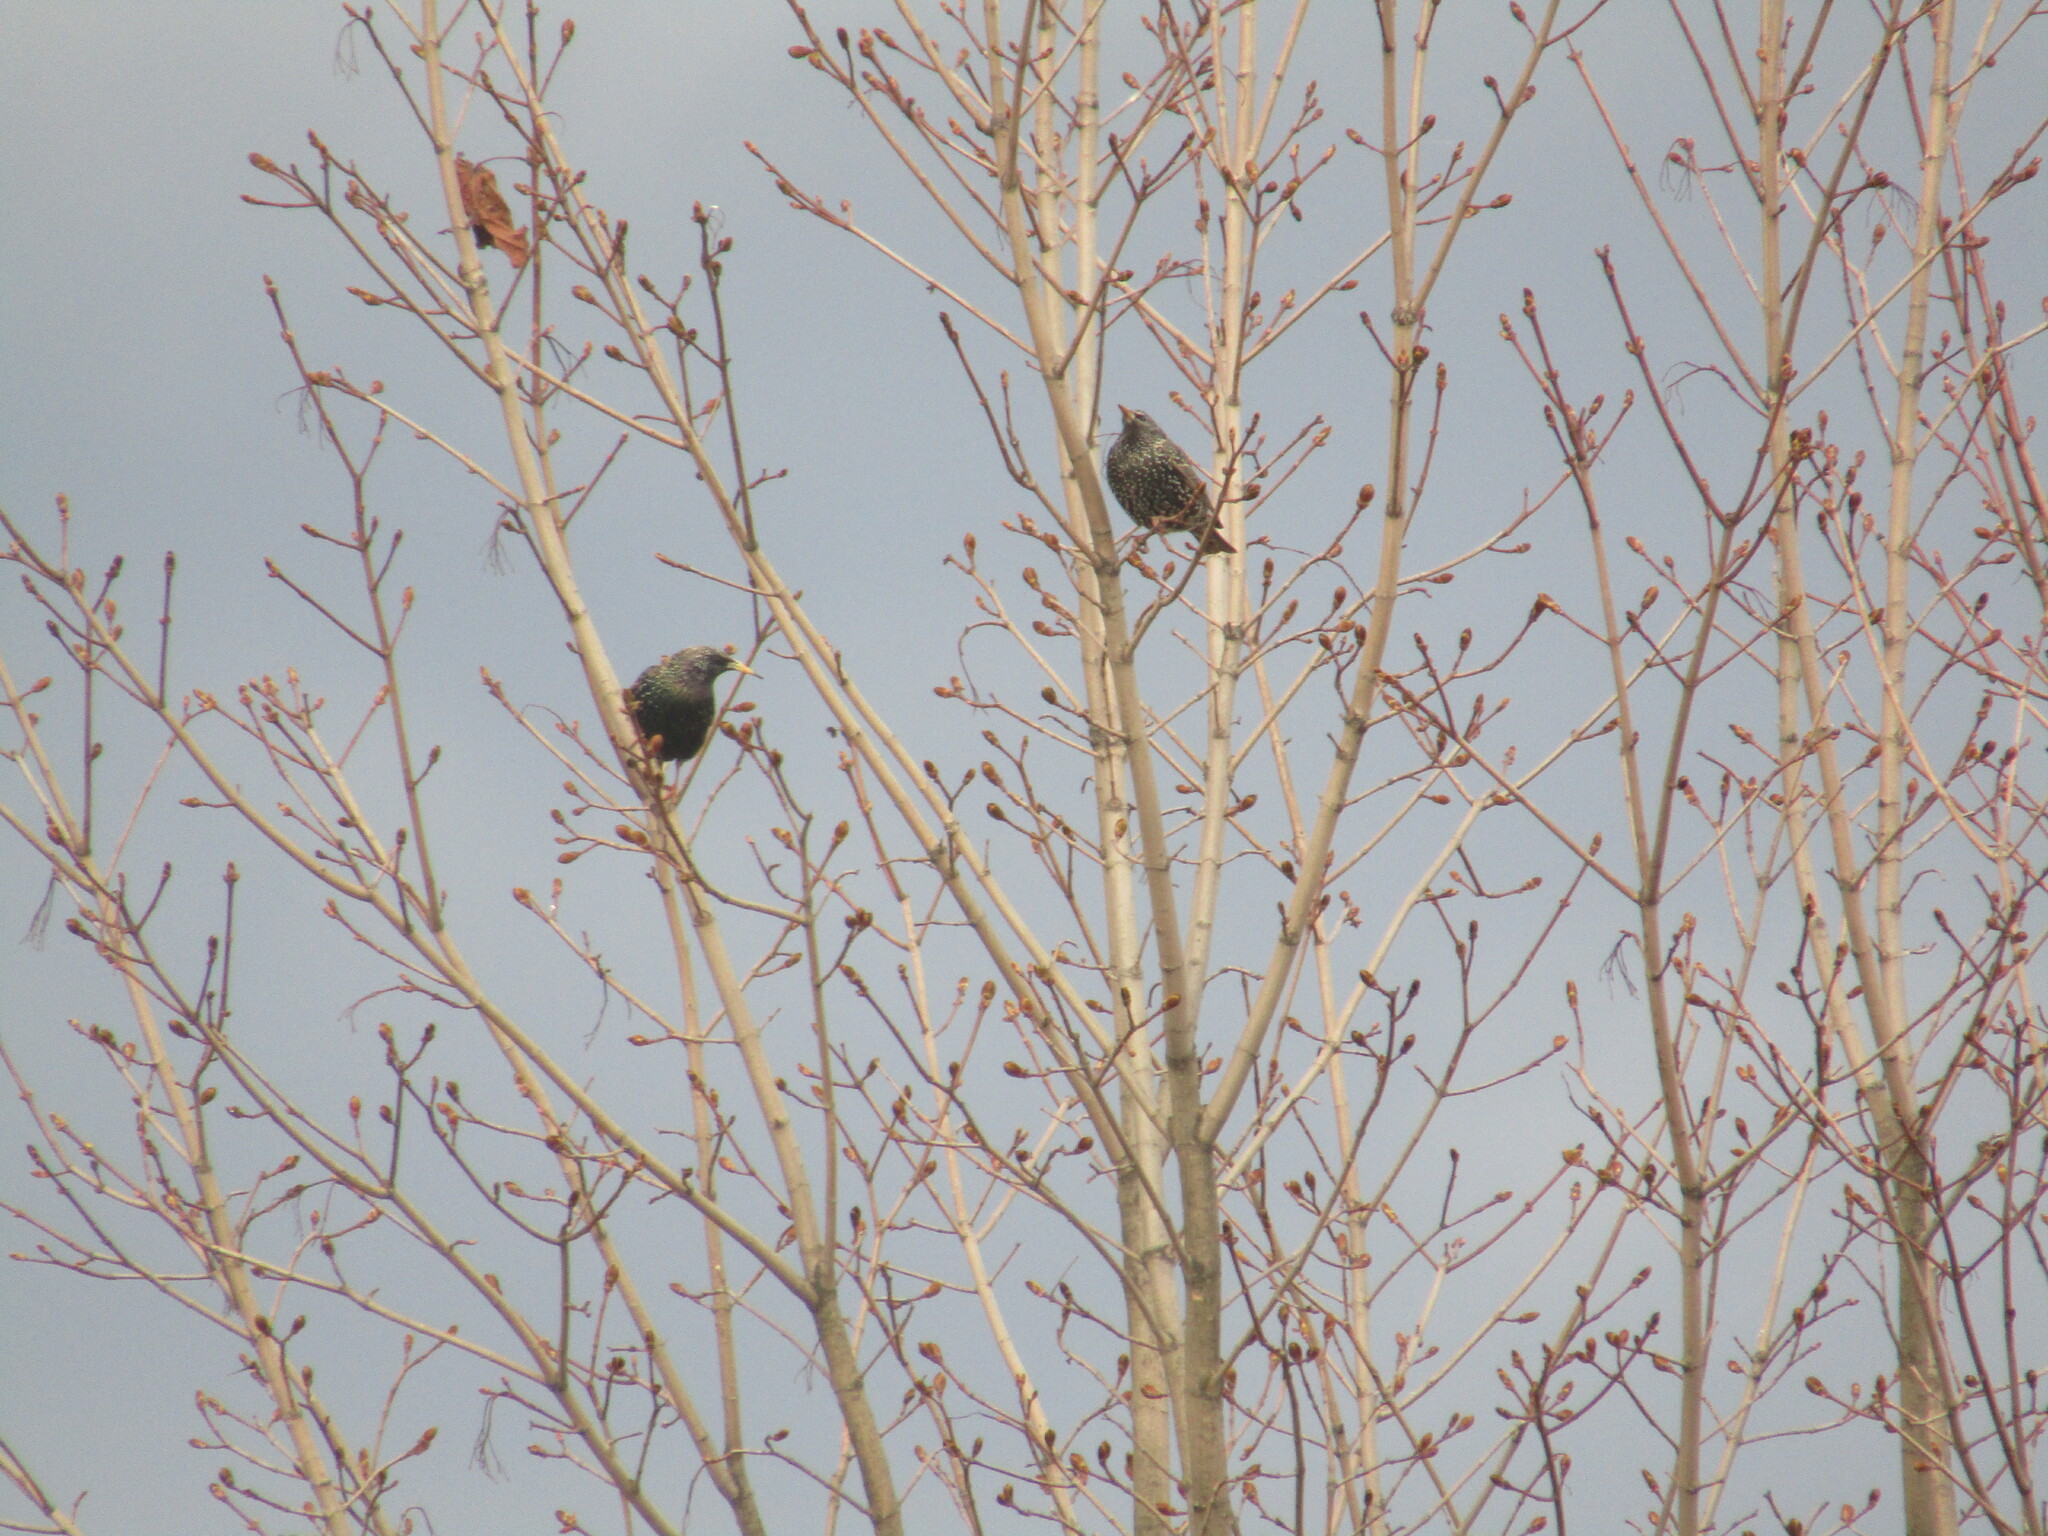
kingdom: Animalia
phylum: Chordata
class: Aves
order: Passeriformes
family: Sturnidae
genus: Sturnus
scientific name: Sturnus vulgaris
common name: Common starling
